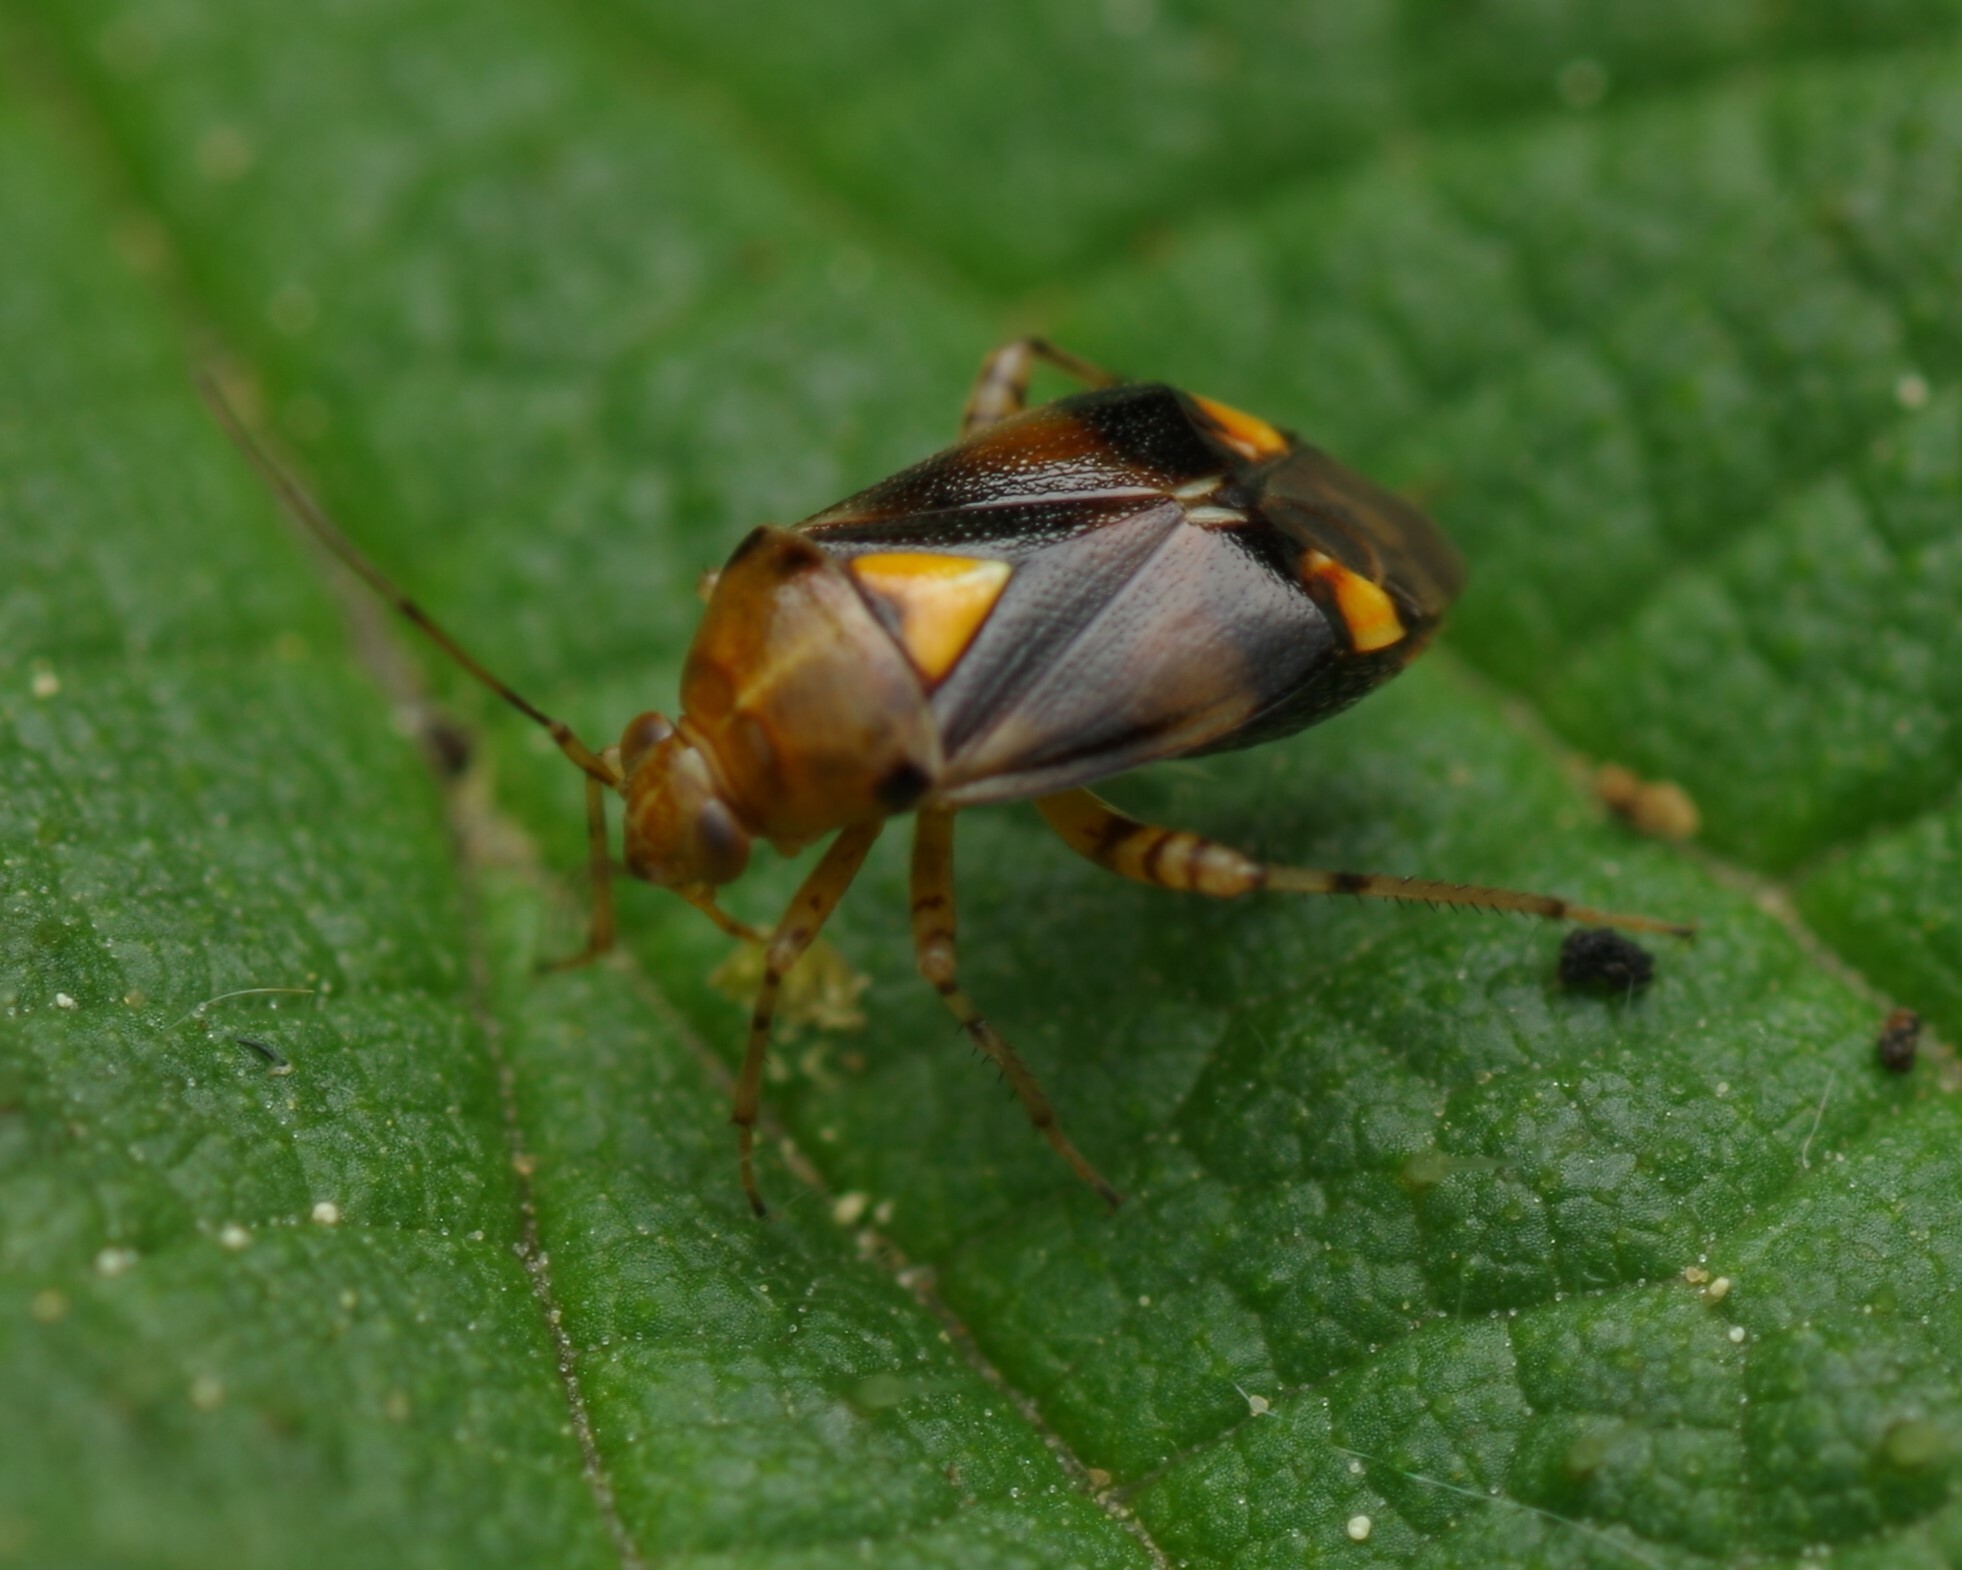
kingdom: Animalia
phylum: Arthropoda
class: Insecta
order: Hemiptera
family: Miridae
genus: Liocoris
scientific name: Liocoris tripustulatus
